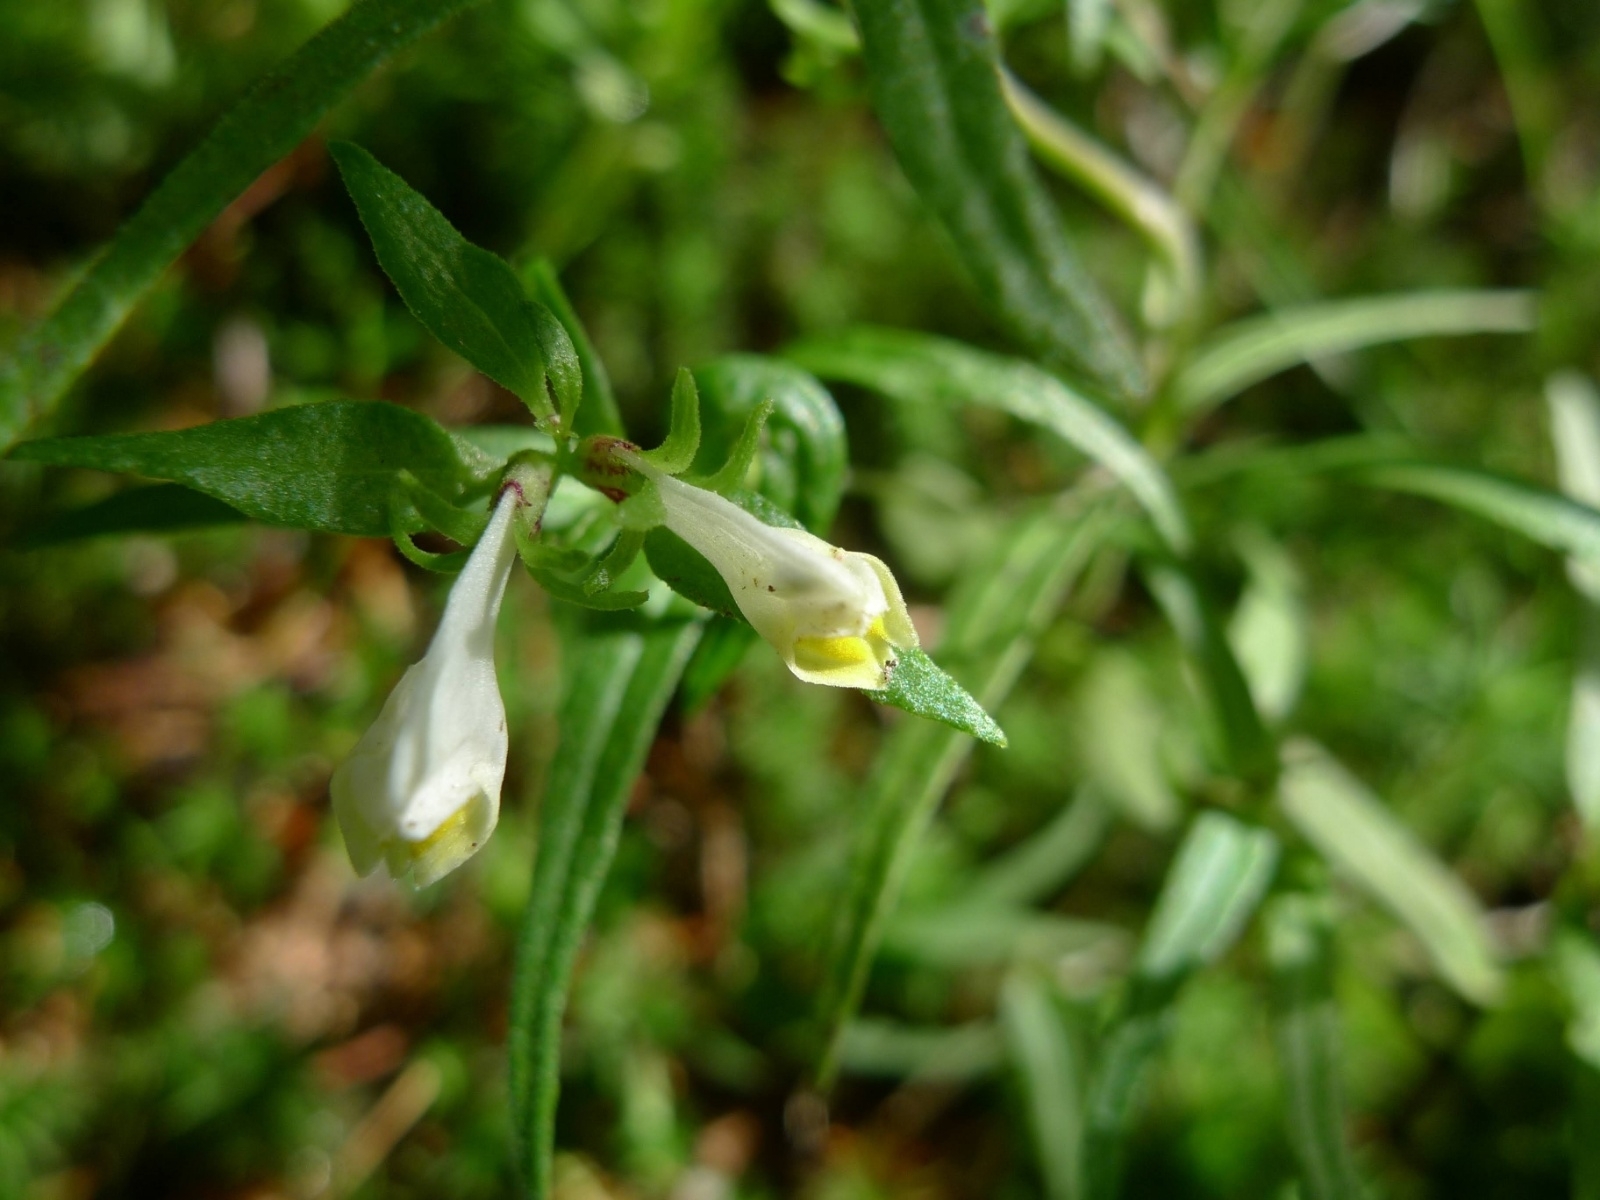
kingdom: Plantae
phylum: Tracheophyta
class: Magnoliopsida
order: Lamiales
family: Orobanchaceae
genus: Melampyrum
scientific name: Melampyrum pratense
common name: Common cow-wheat
